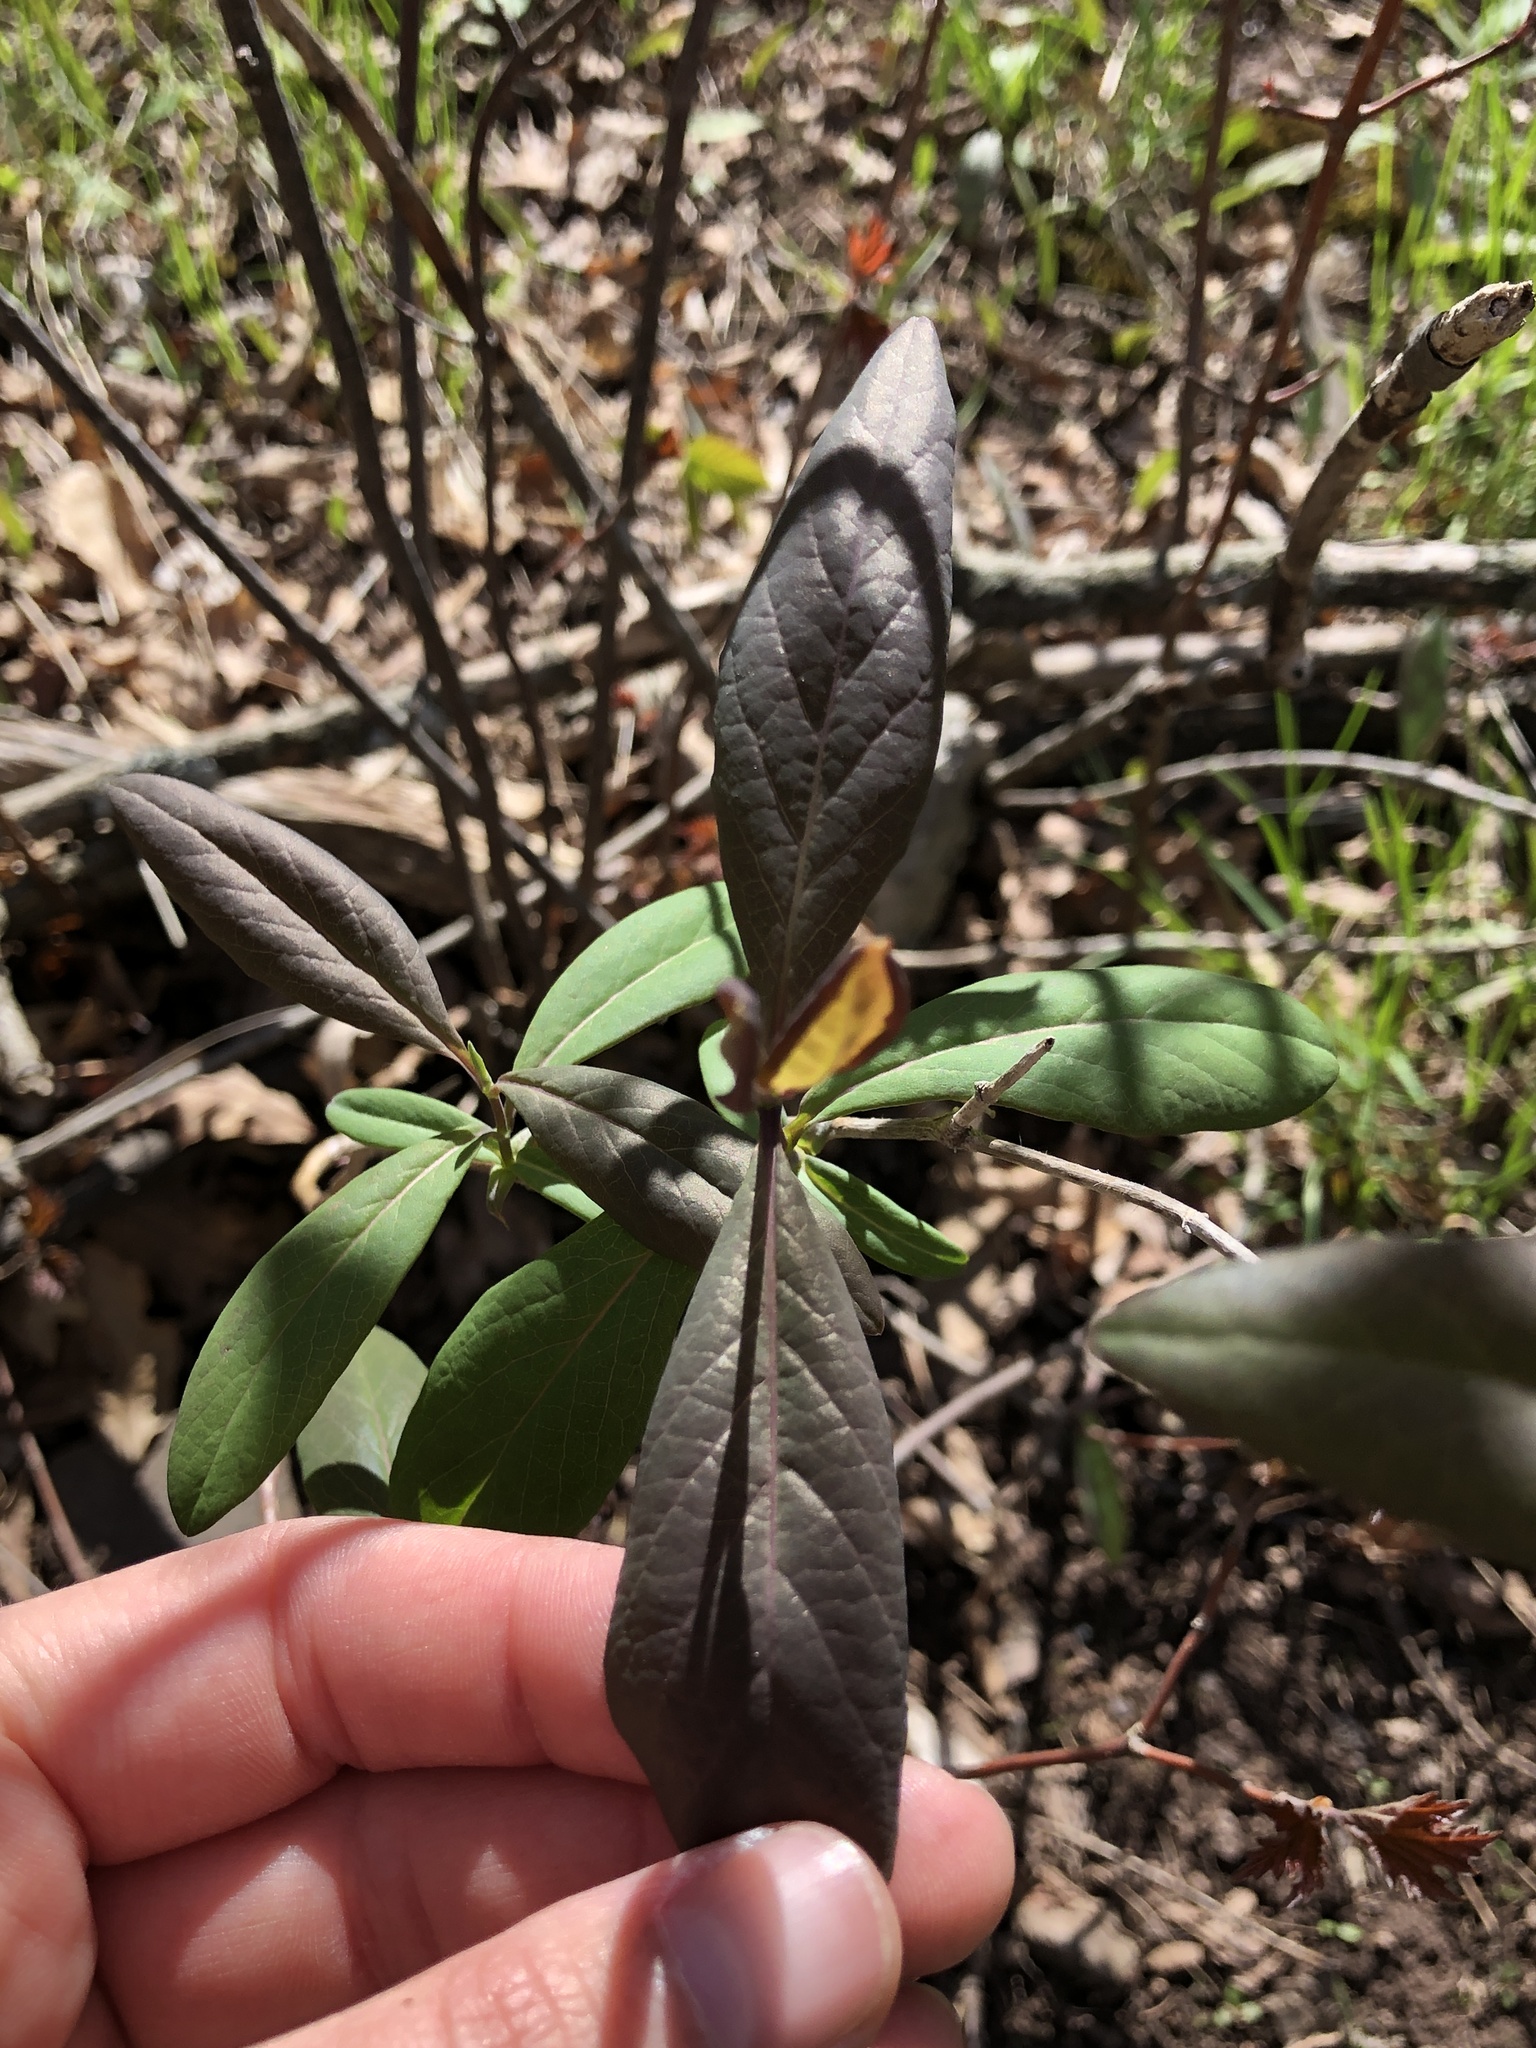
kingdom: Plantae
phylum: Tracheophyta
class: Magnoliopsida
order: Dipsacales
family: Caprifoliaceae
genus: Lonicera
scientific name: Lonicera dioica
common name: Limber honeysuckle
